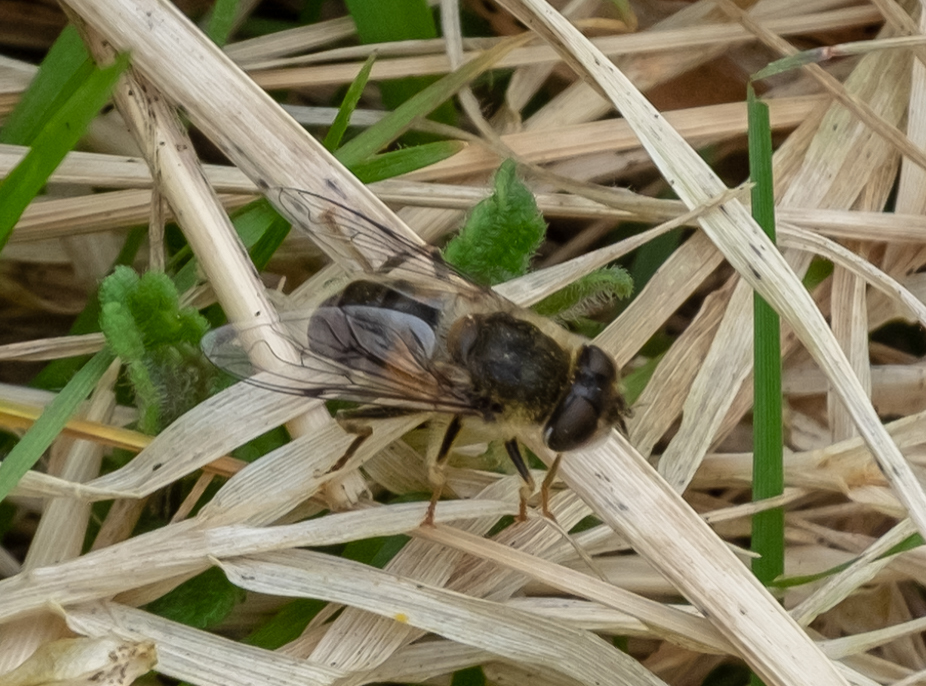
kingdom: Animalia
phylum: Arthropoda
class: Insecta
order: Diptera
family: Syrphidae
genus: Eristalis
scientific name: Eristalis pertinax
